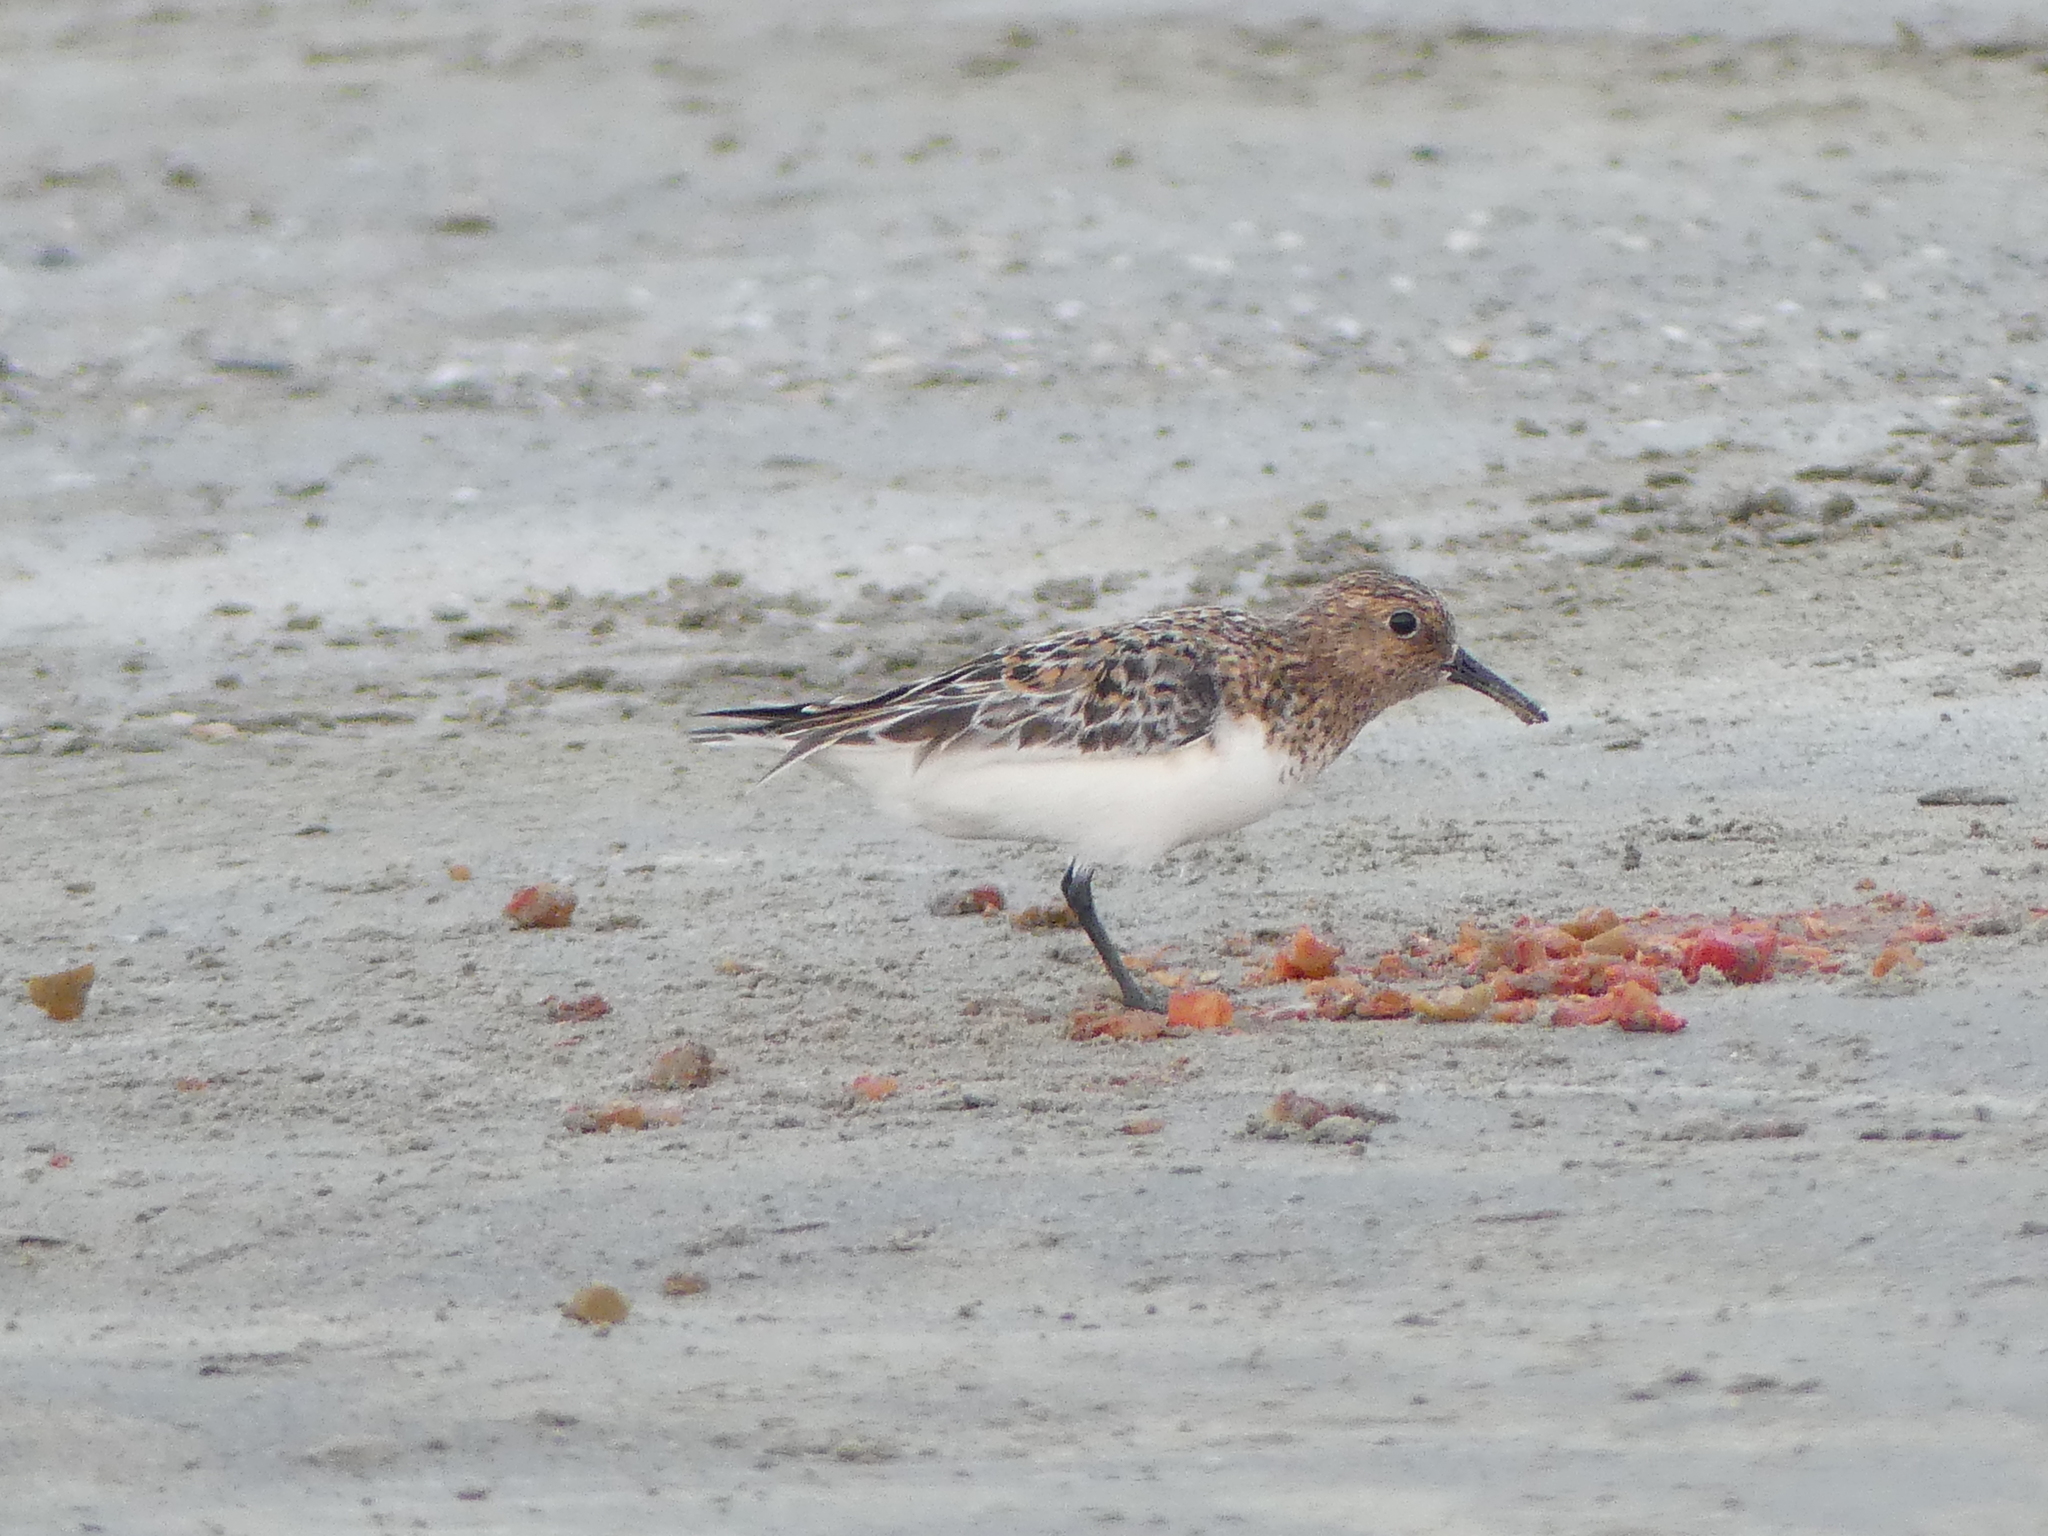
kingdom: Animalia
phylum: Chordata
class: Aves
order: Charadriiformes
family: Scolopacidae
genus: Calidris
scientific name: Calidris alba
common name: Sanderling
